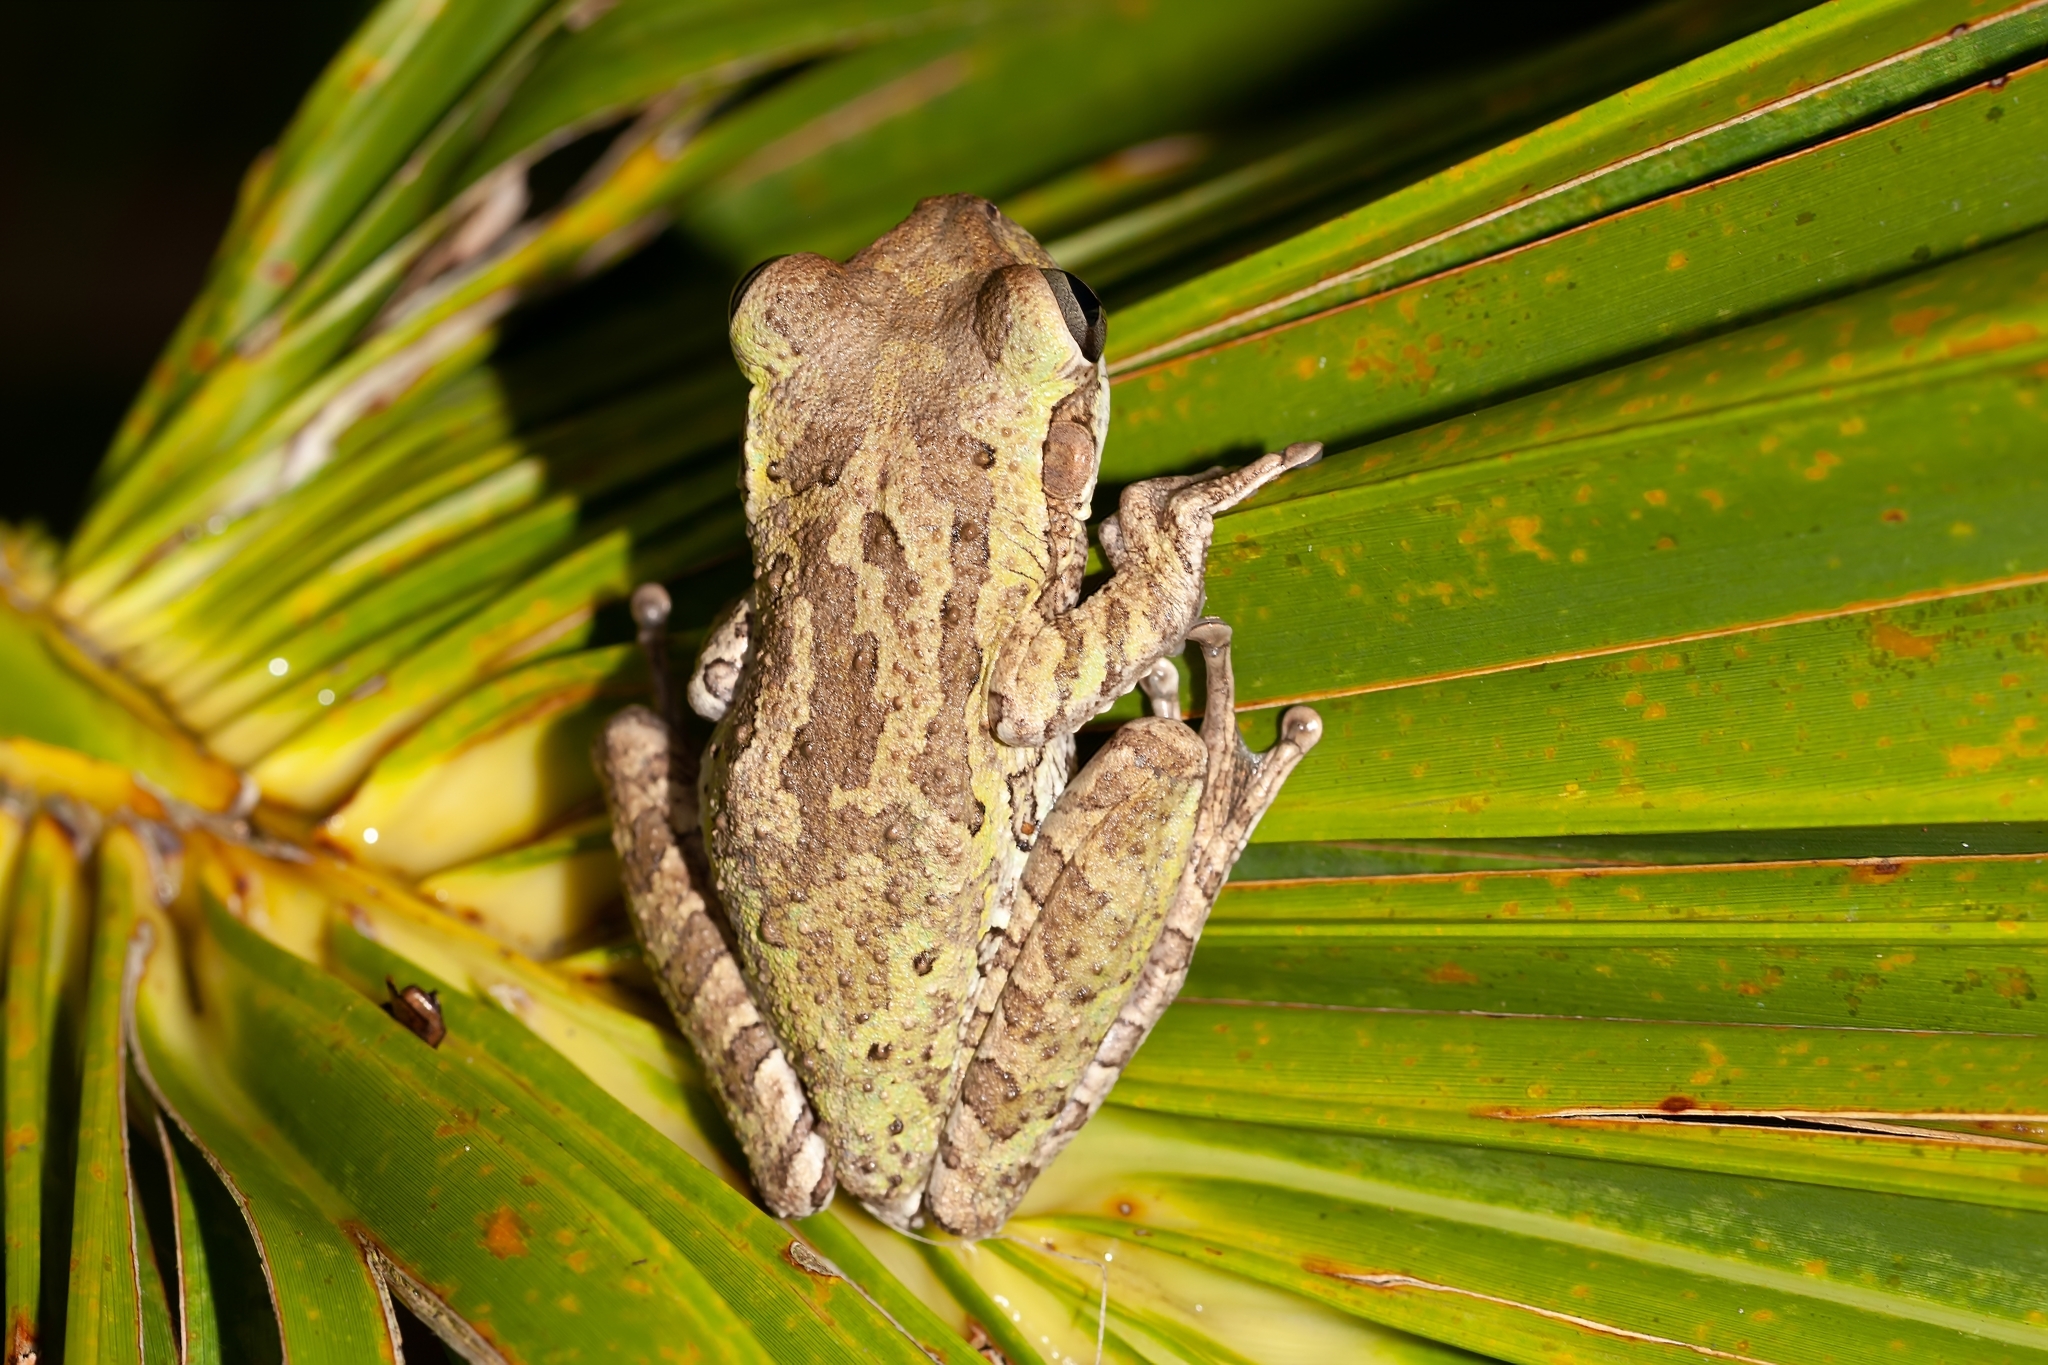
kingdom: Animalia
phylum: Chordata
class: Amphibia
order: Anura
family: Hylidae
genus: Osteopilus
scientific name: Osteopilus septentrionalis
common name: Cuban treefrog
